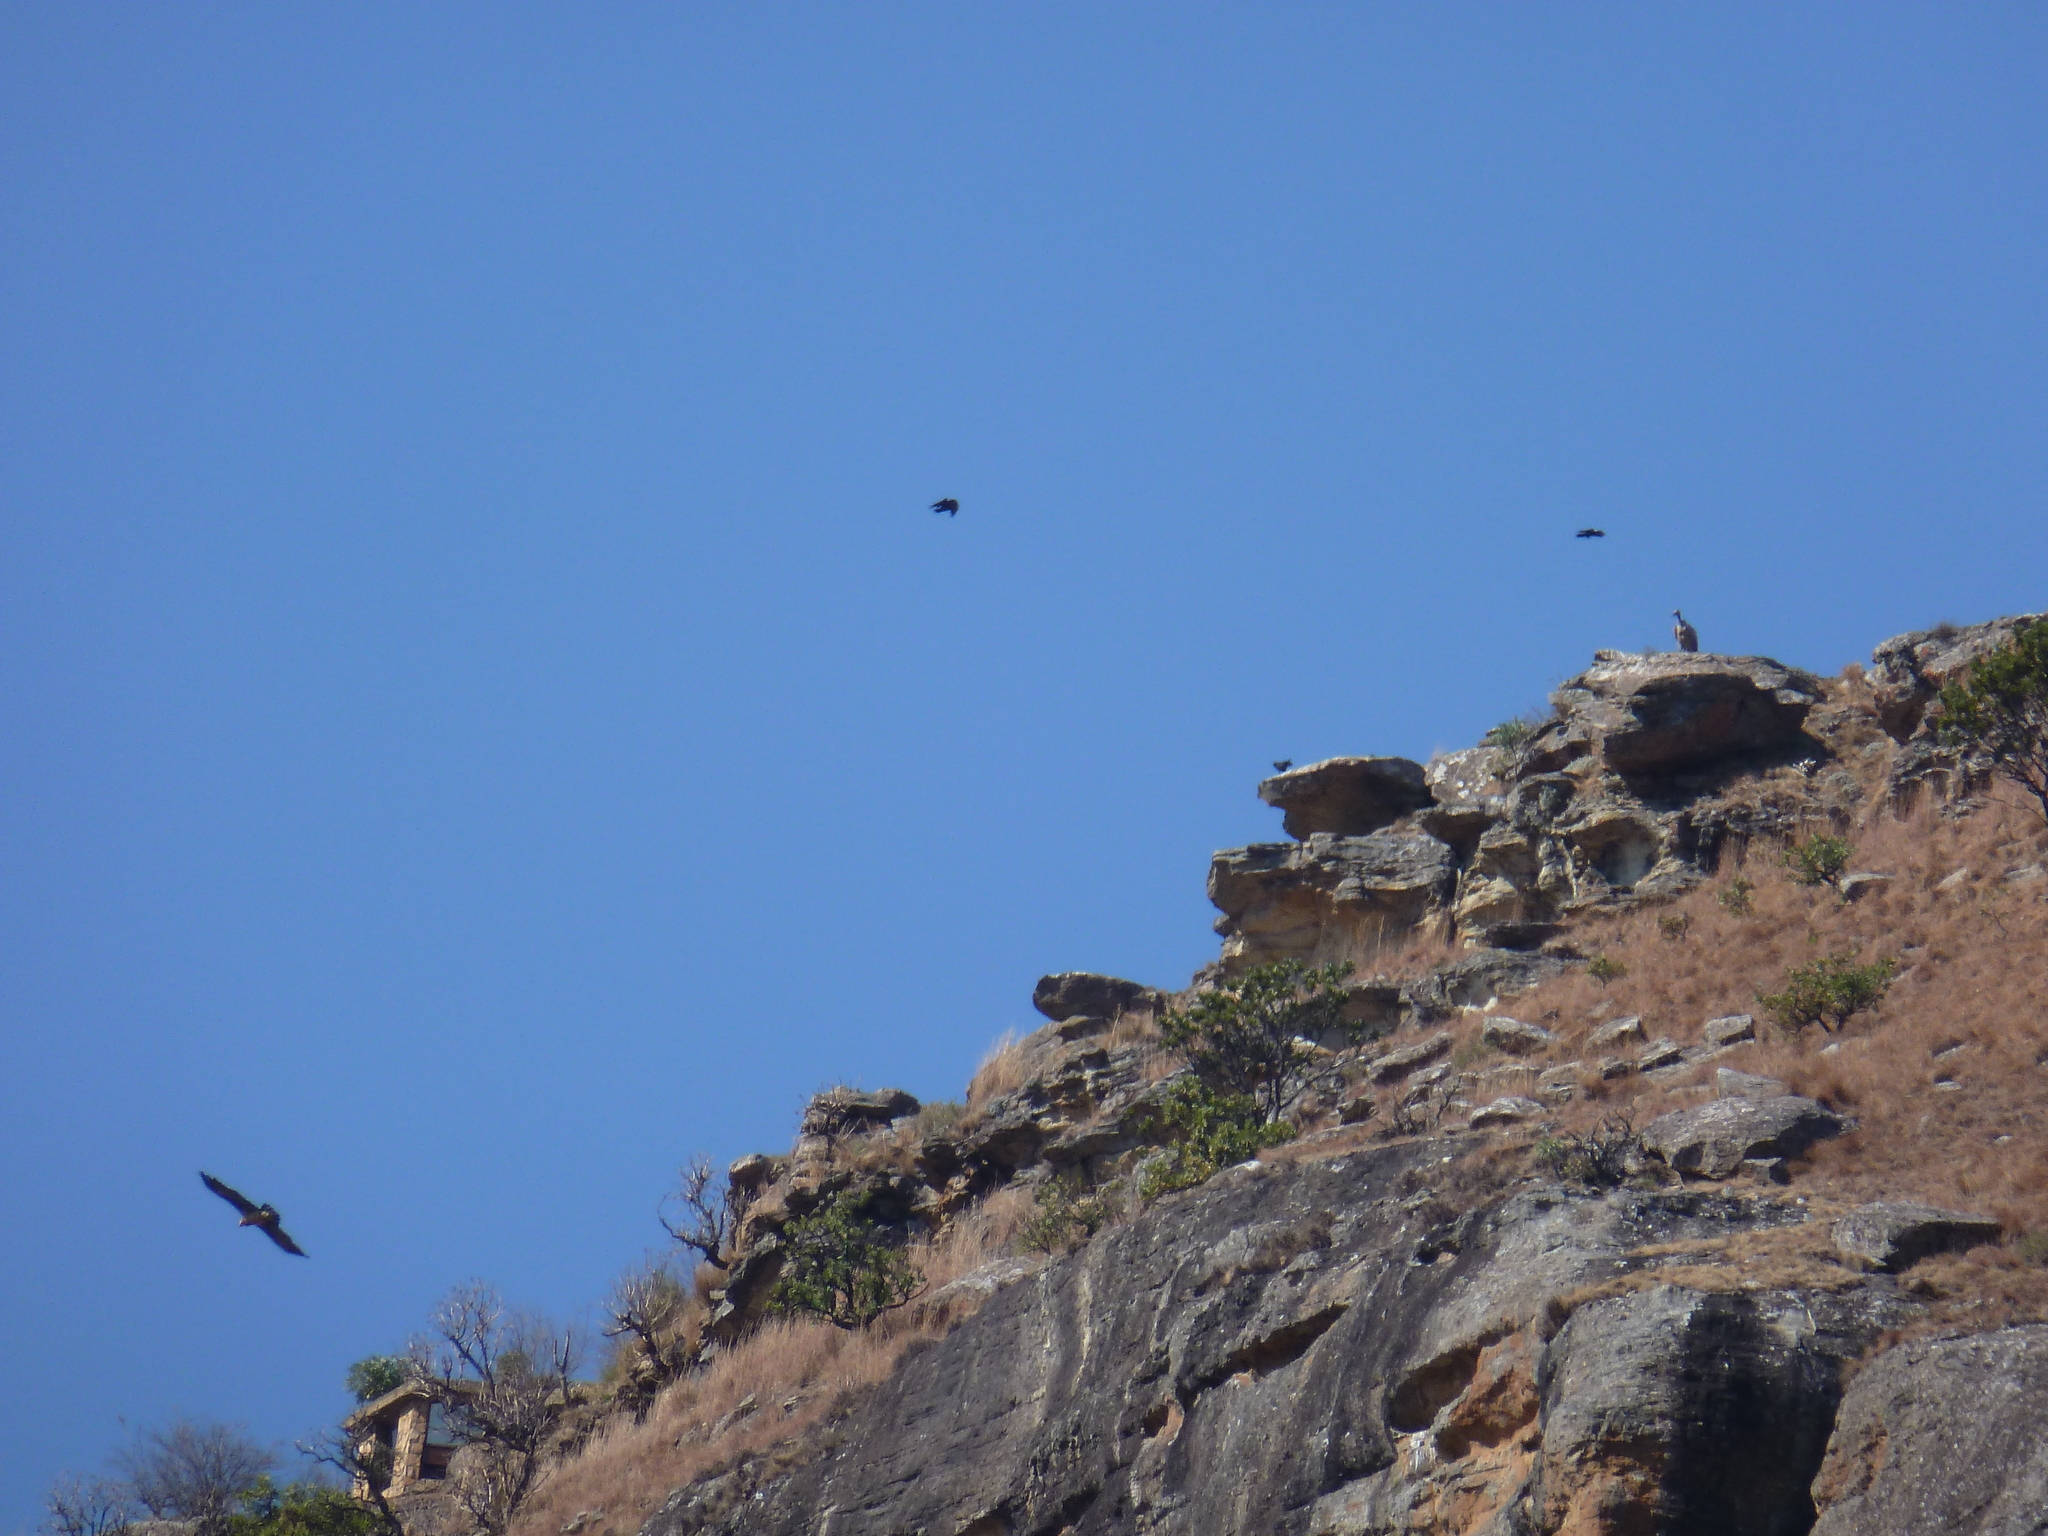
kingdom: Animalia
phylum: Chordata
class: Aves
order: Accipitriformes
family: Accipitridae
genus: Gypaetus
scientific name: Gypaetus barbatus
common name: Bearded vulture
